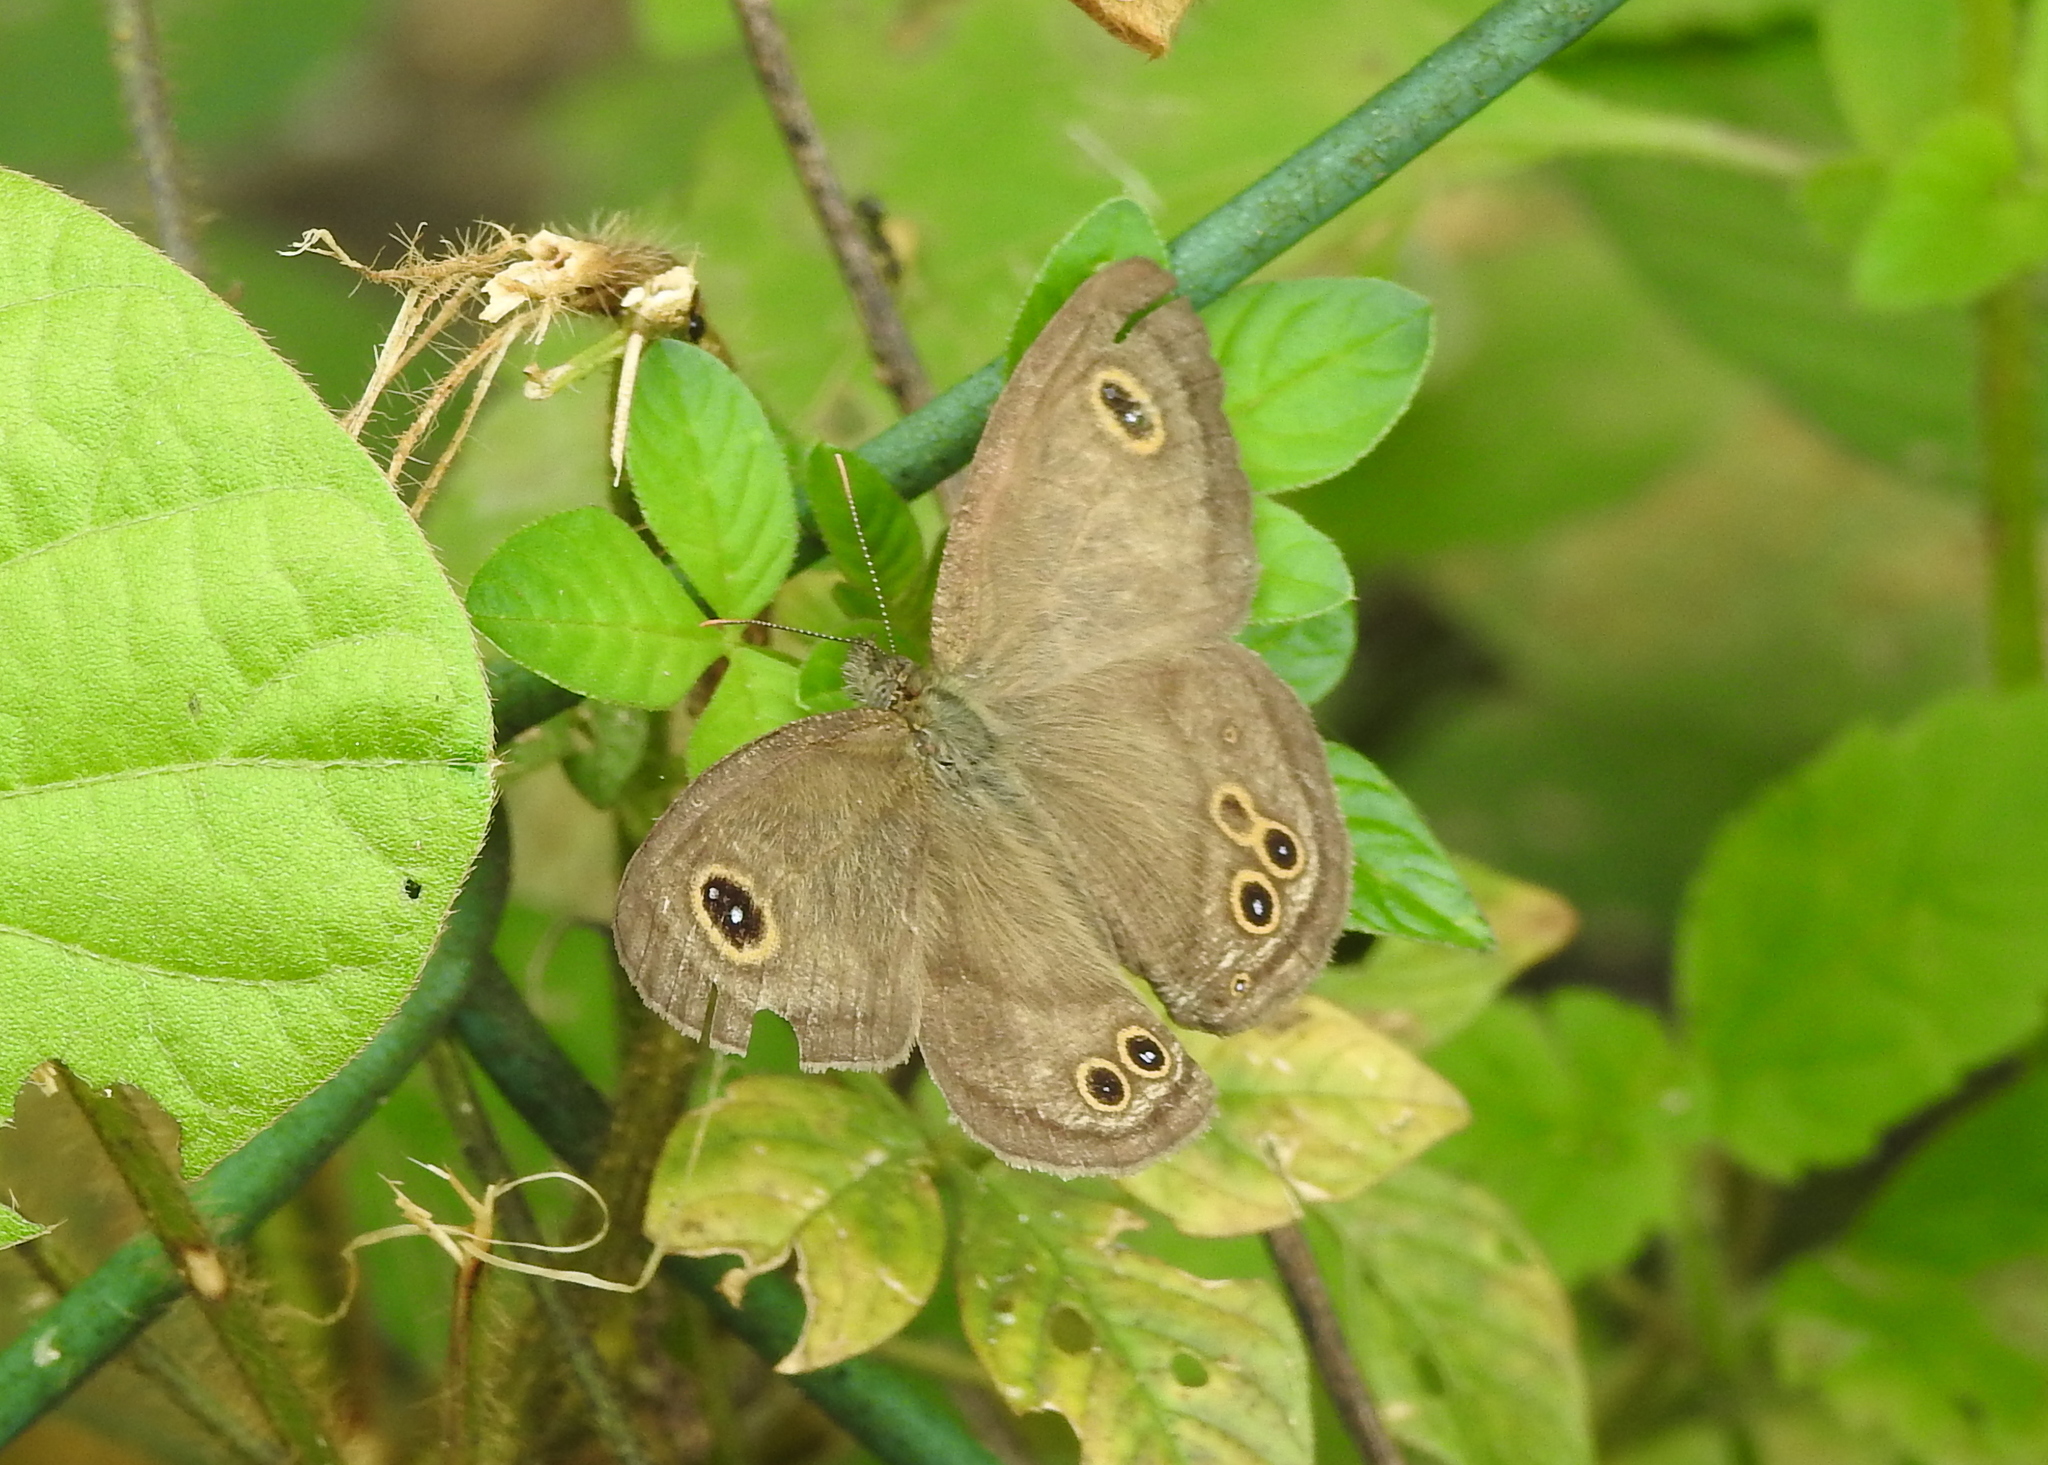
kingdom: Animalia
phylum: Arthropoda
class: Insecta
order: Lepidoptera
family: Nymphalidae
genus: Ypthima
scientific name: Ypthima baldus
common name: Common five-ring
